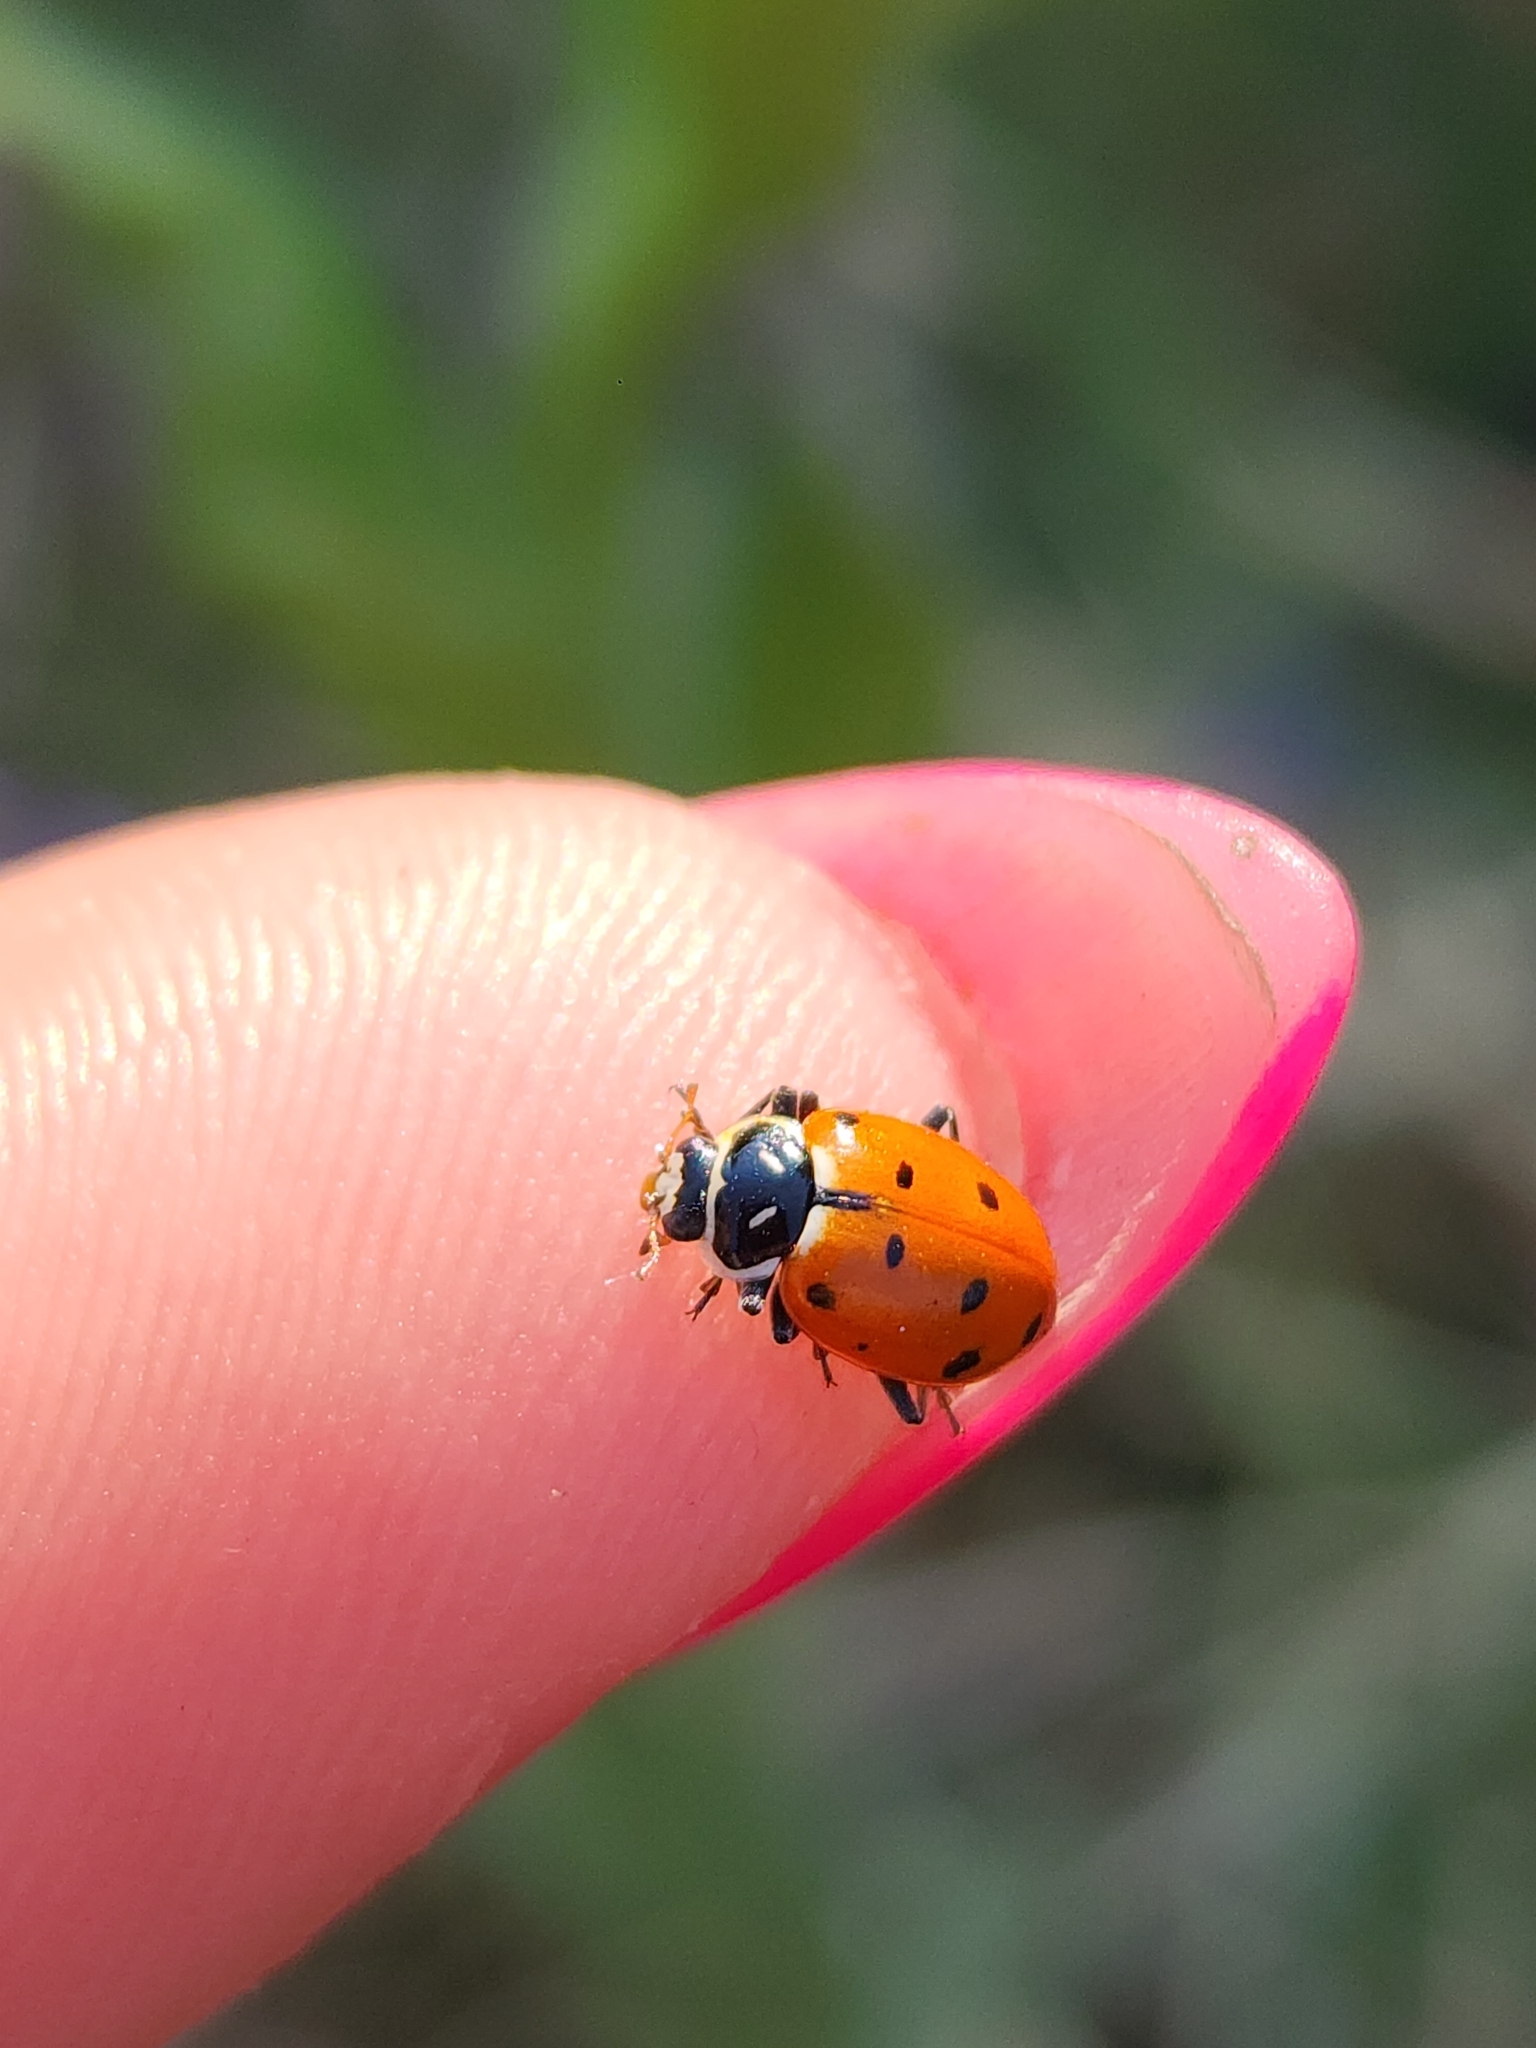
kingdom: Animalia
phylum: Arthropoda
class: Insecta
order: Coleoptera
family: Coccinellidae
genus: Hippodamia
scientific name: Hippodamia convergens
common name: Convergent lady beetle
